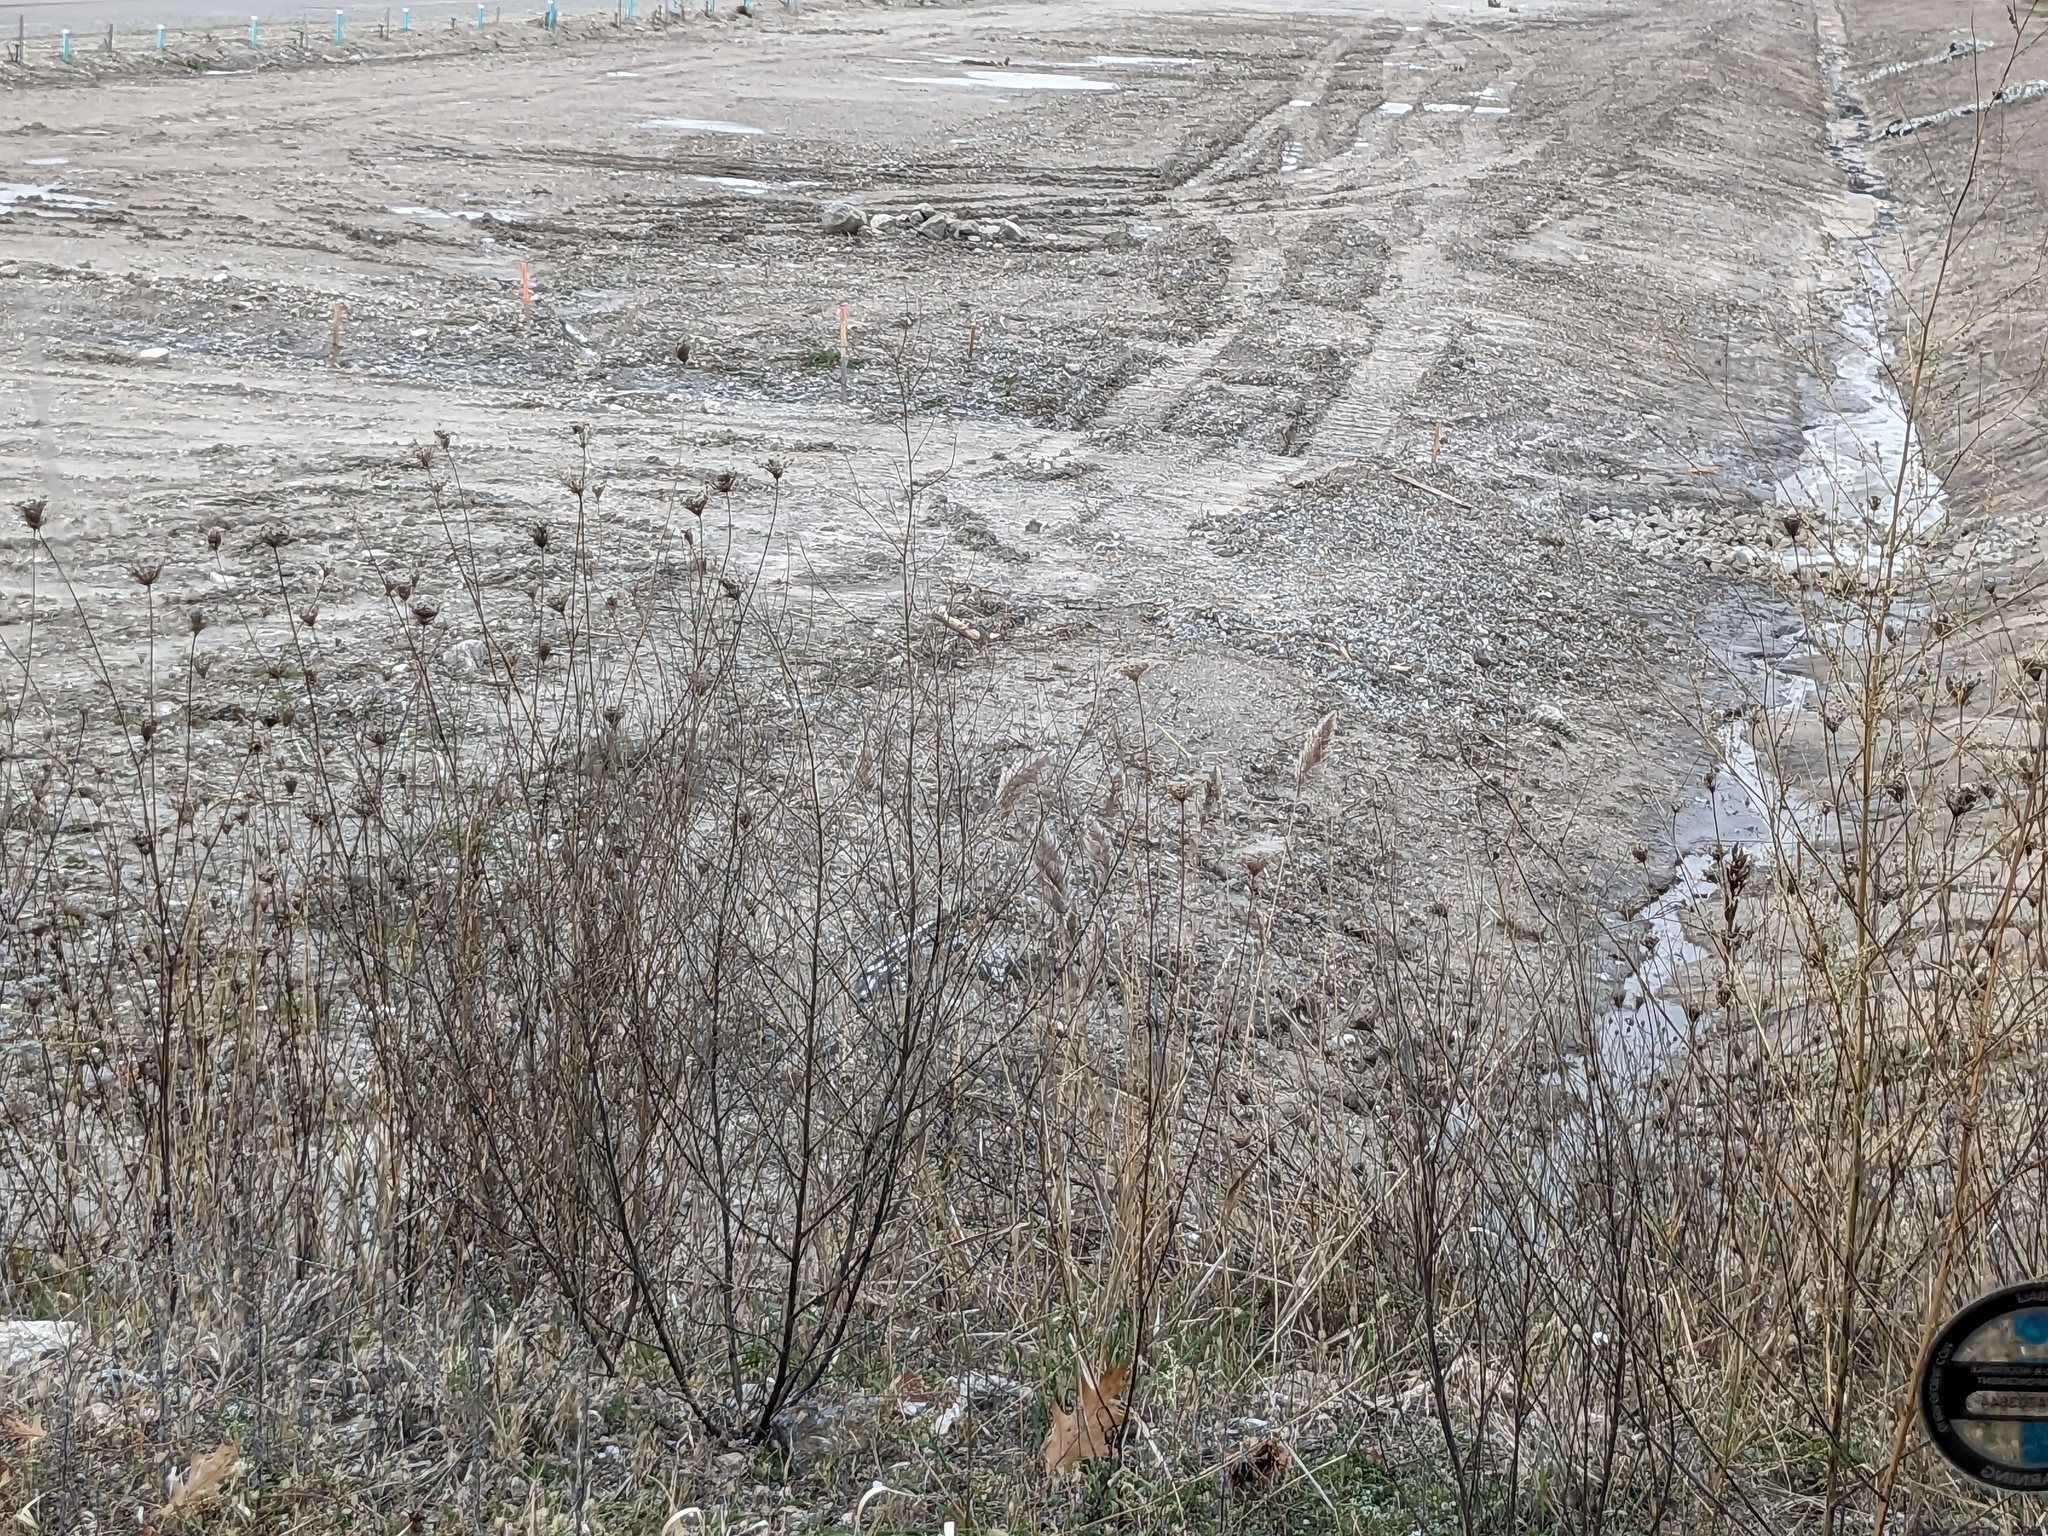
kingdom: Plantae
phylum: Tracheophyta
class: Liliopsida
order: Poales
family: Poaceae
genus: Phragmites
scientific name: Phragmites australis
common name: Common reed
